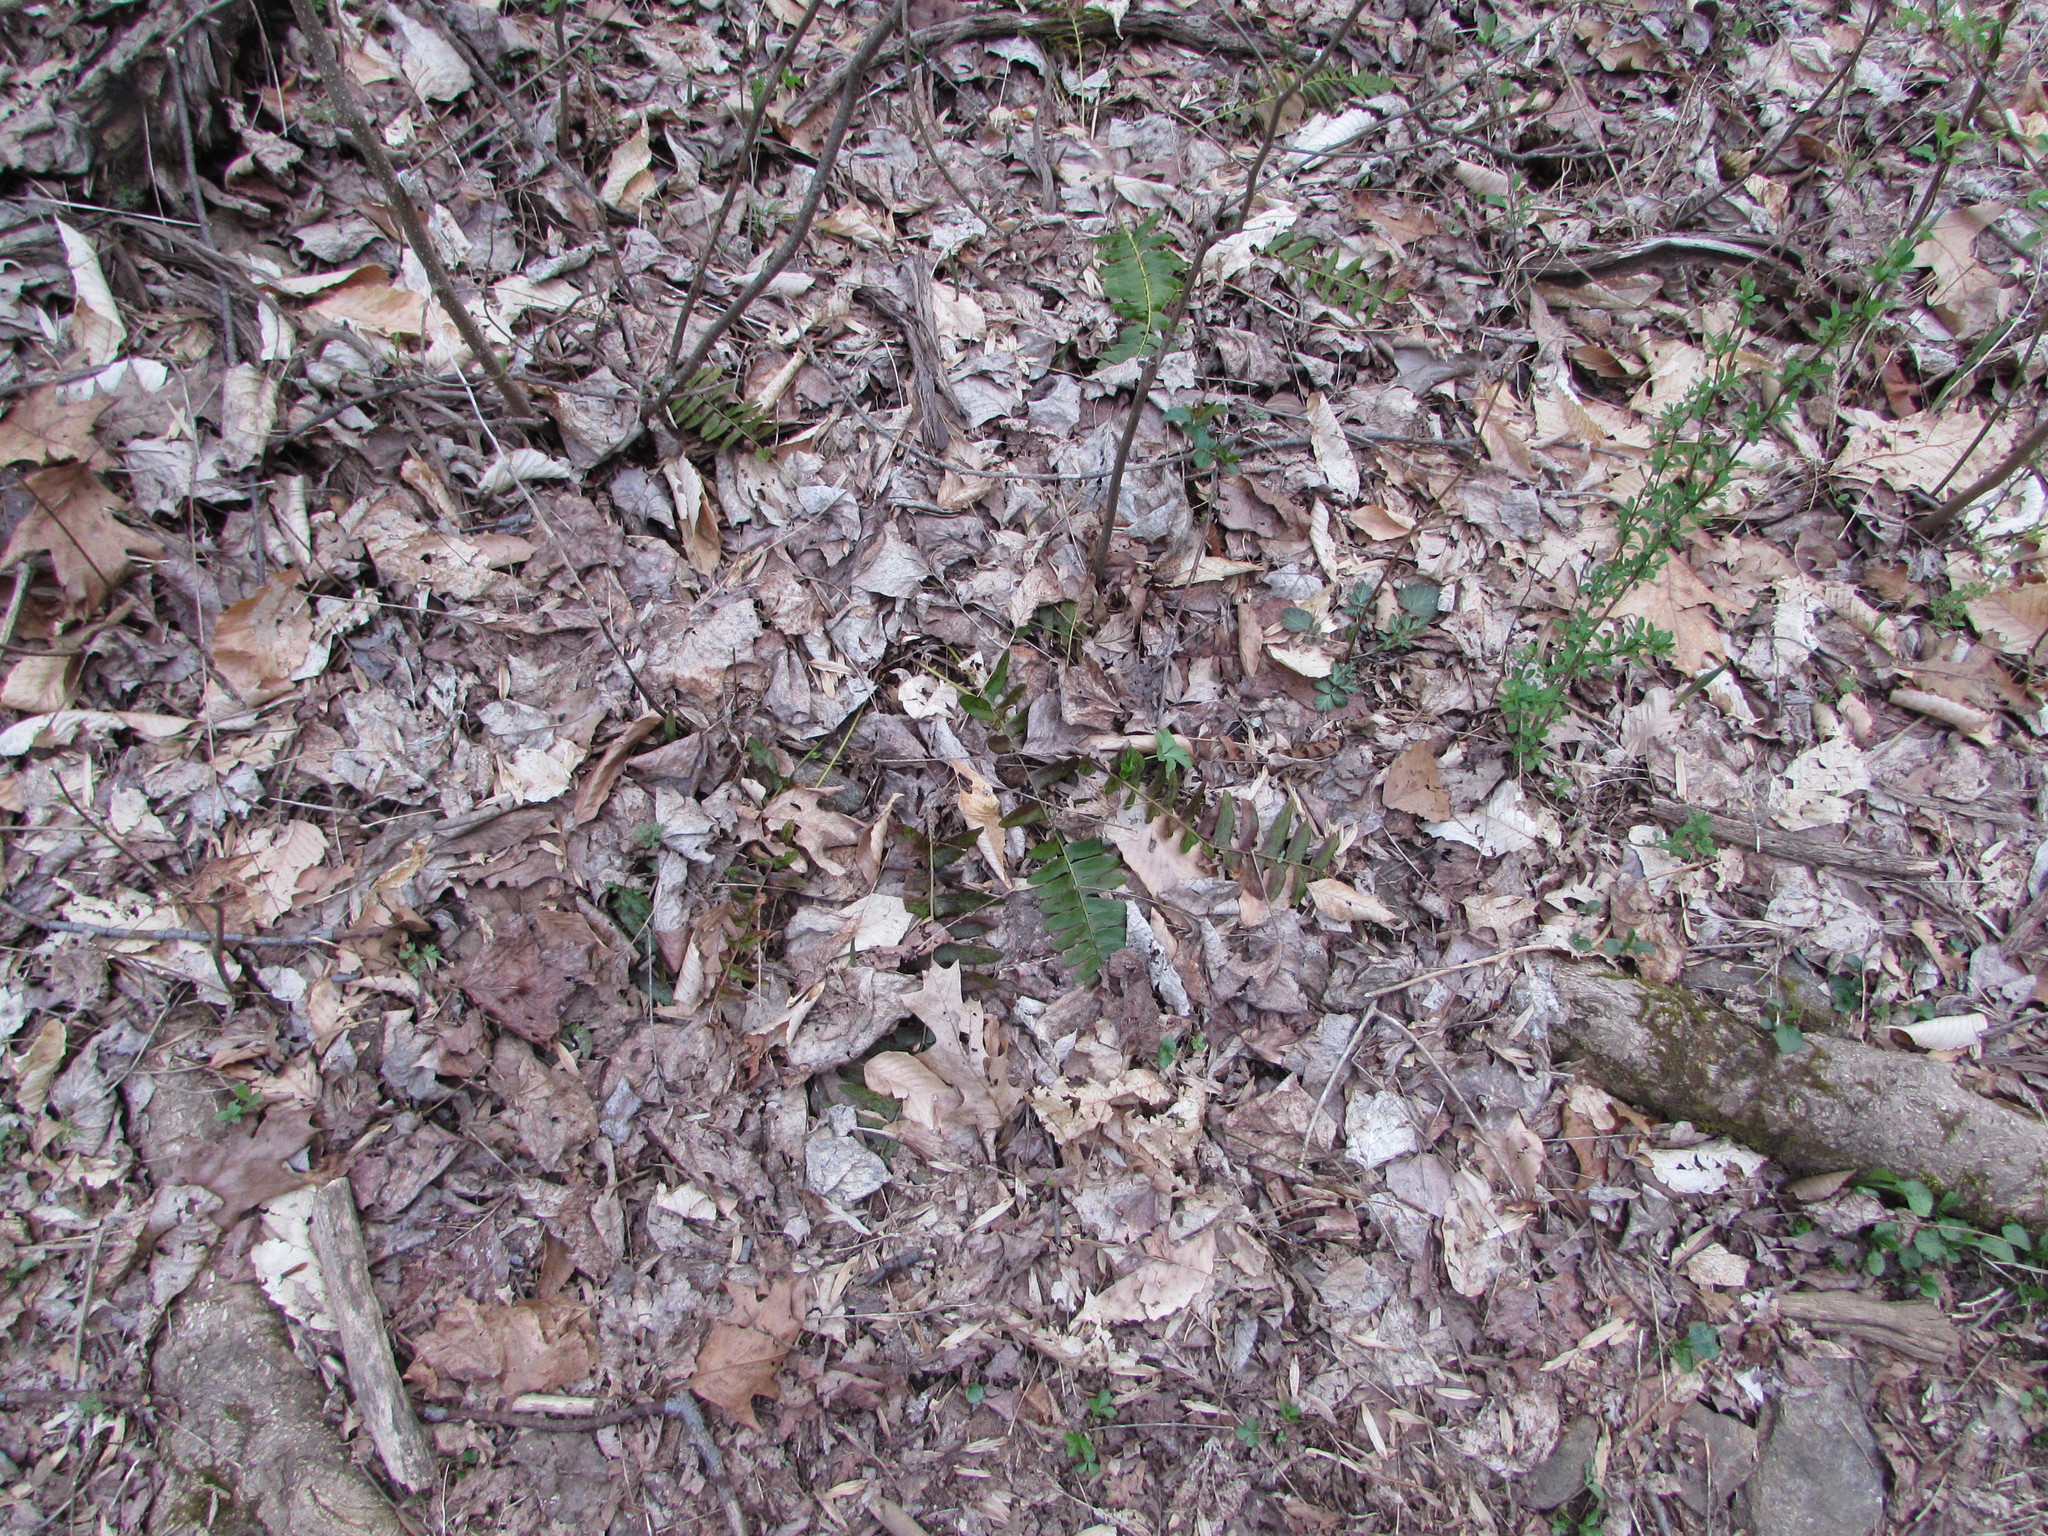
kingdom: Plantae
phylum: Tracheophyta
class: Polypodiopsida
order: Polypodiales
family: Dryopteridaceae
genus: Polystichum
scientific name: Polystichum acrostichoides
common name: Christmas fern
